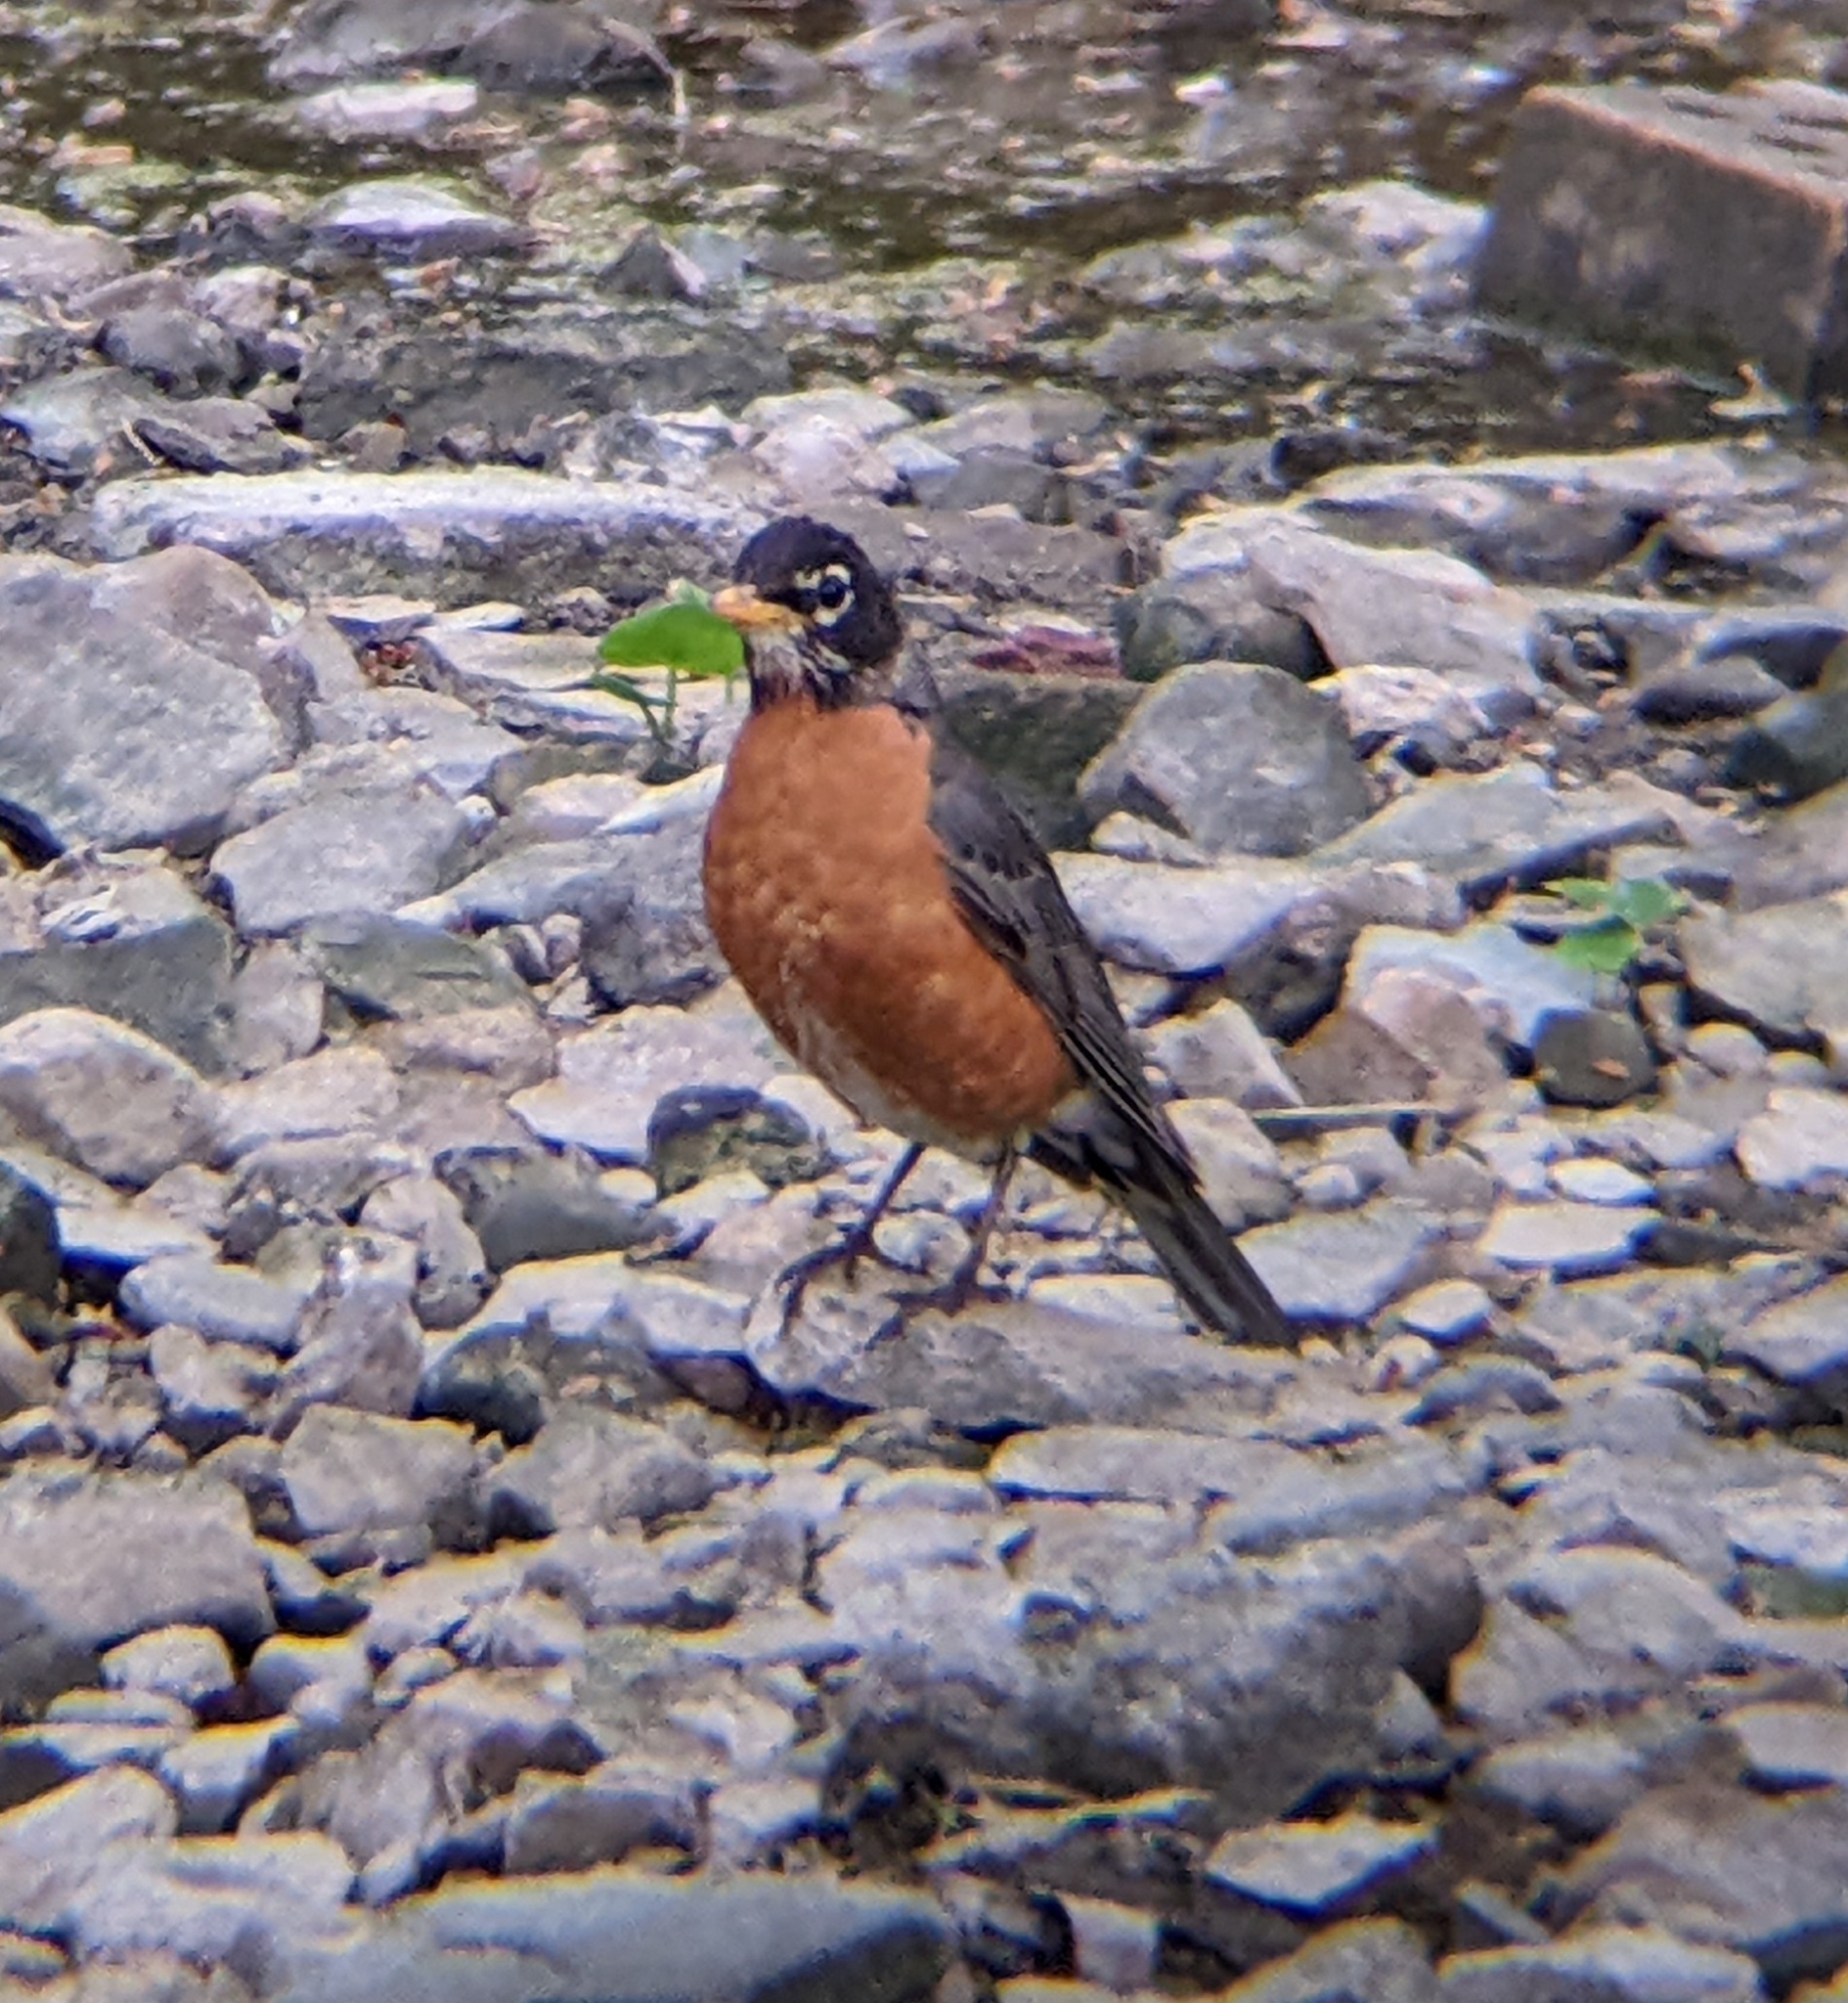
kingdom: Animalia
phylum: Chordata
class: Aves
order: Passeriformes
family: Turdidae
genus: Turdus
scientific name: Turdus migratorius
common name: American robin
